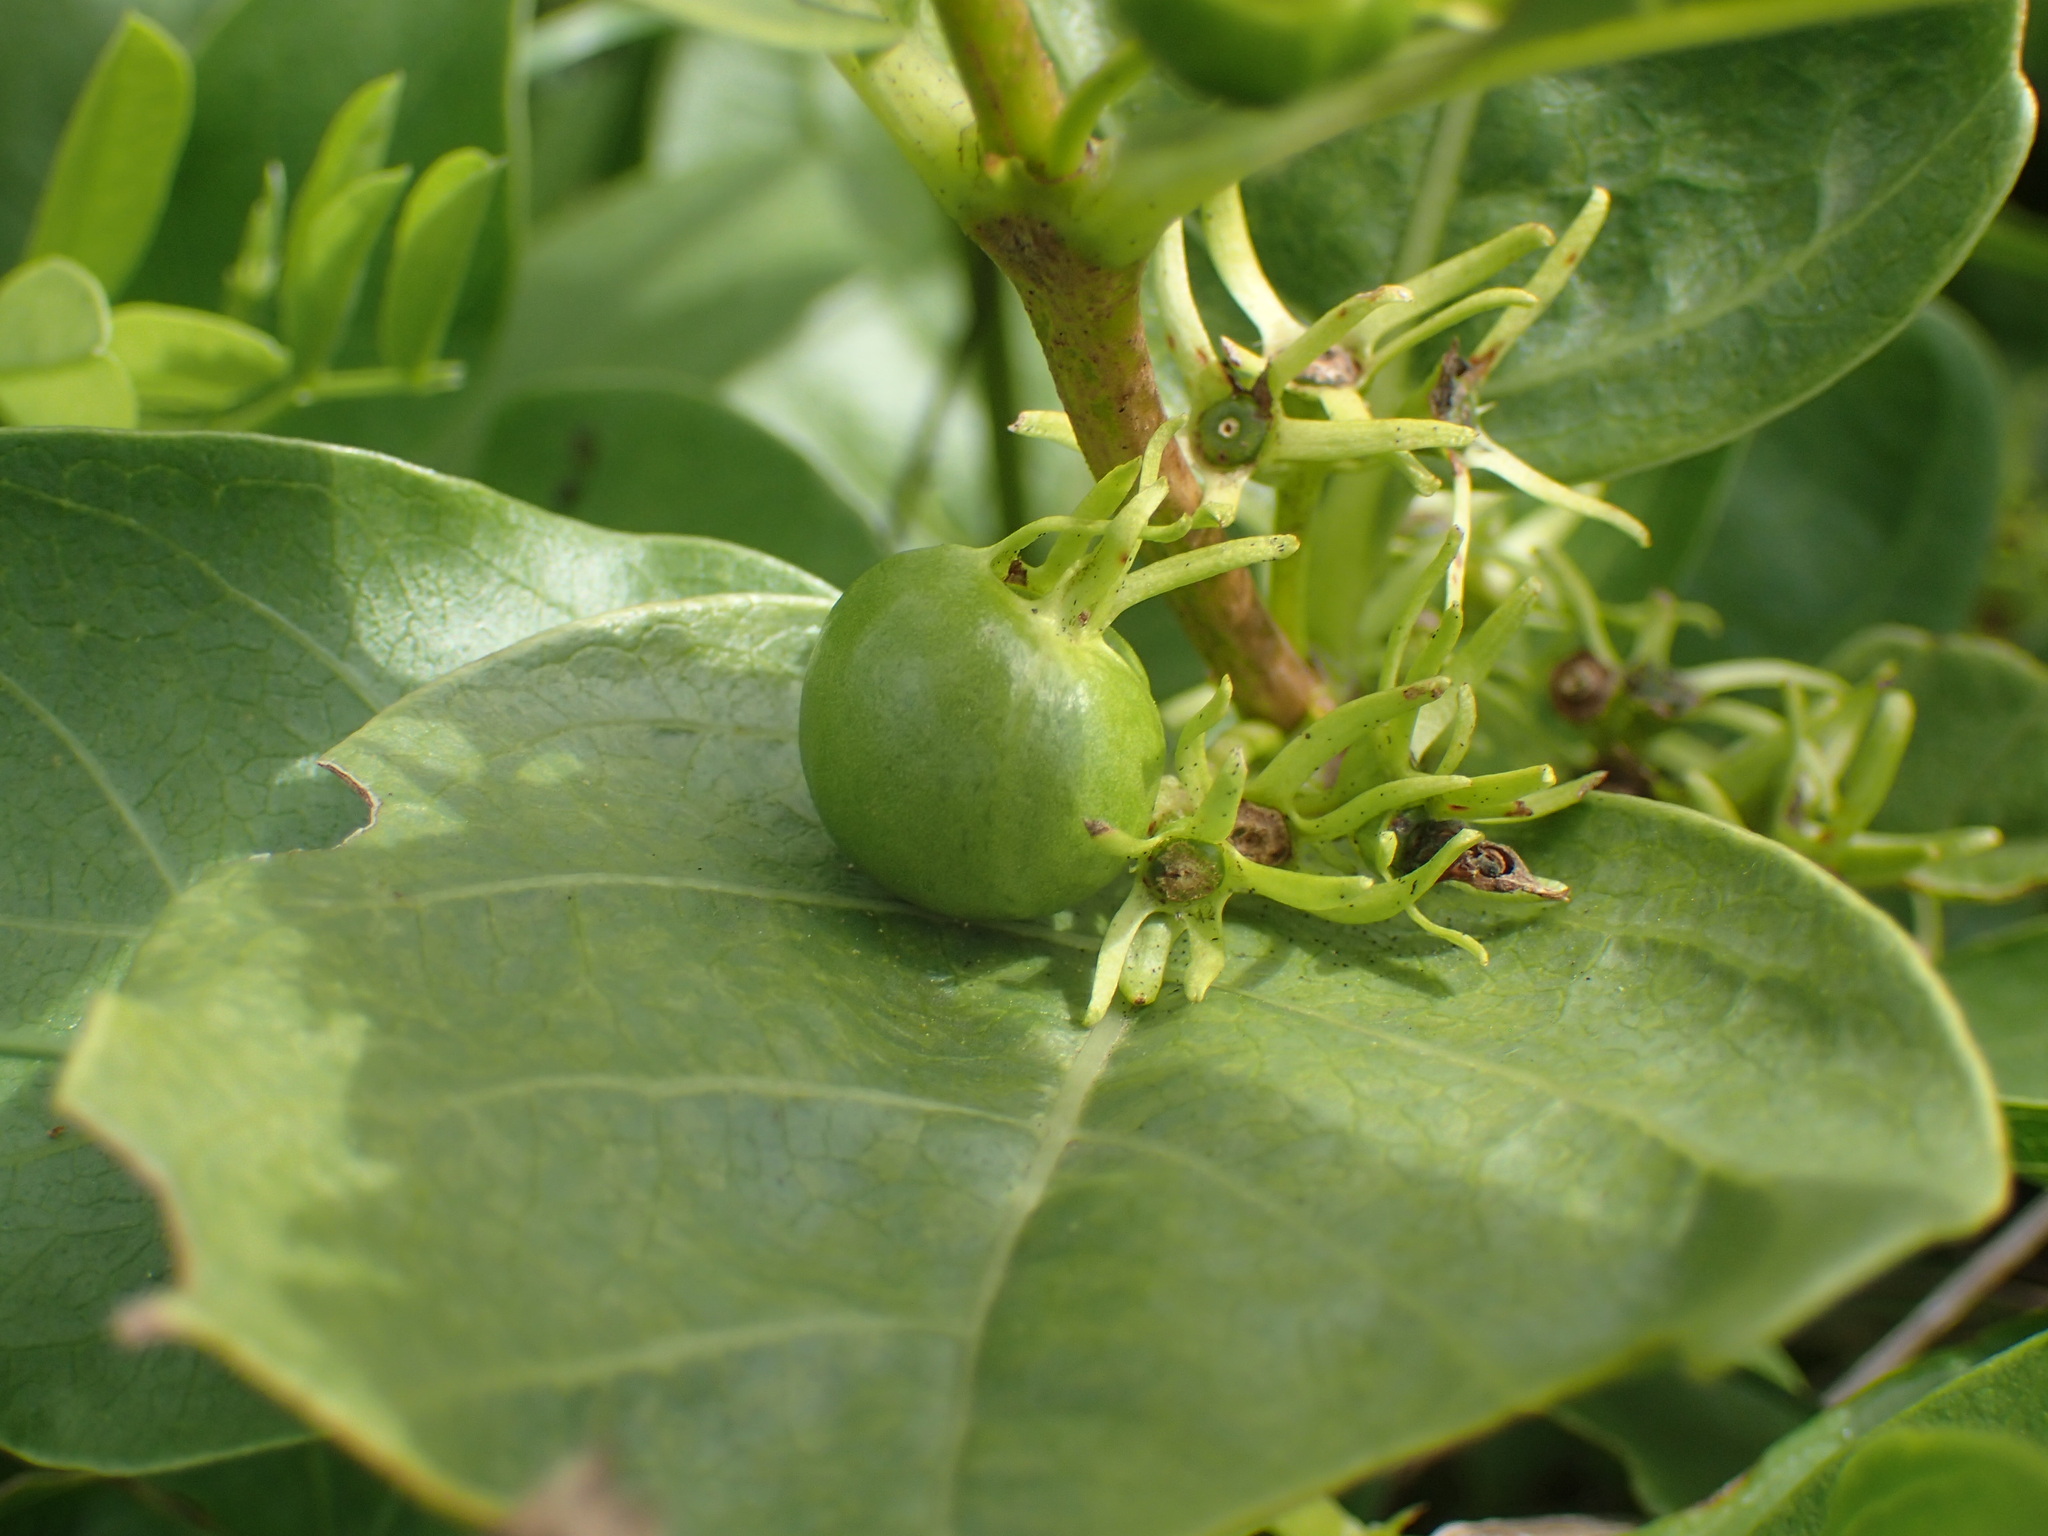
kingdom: Plantae
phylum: Tracheophyta
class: Magnoliopsida
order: Gentianales
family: Rubiaceae
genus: Vangueria
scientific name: Vangueria venosa
